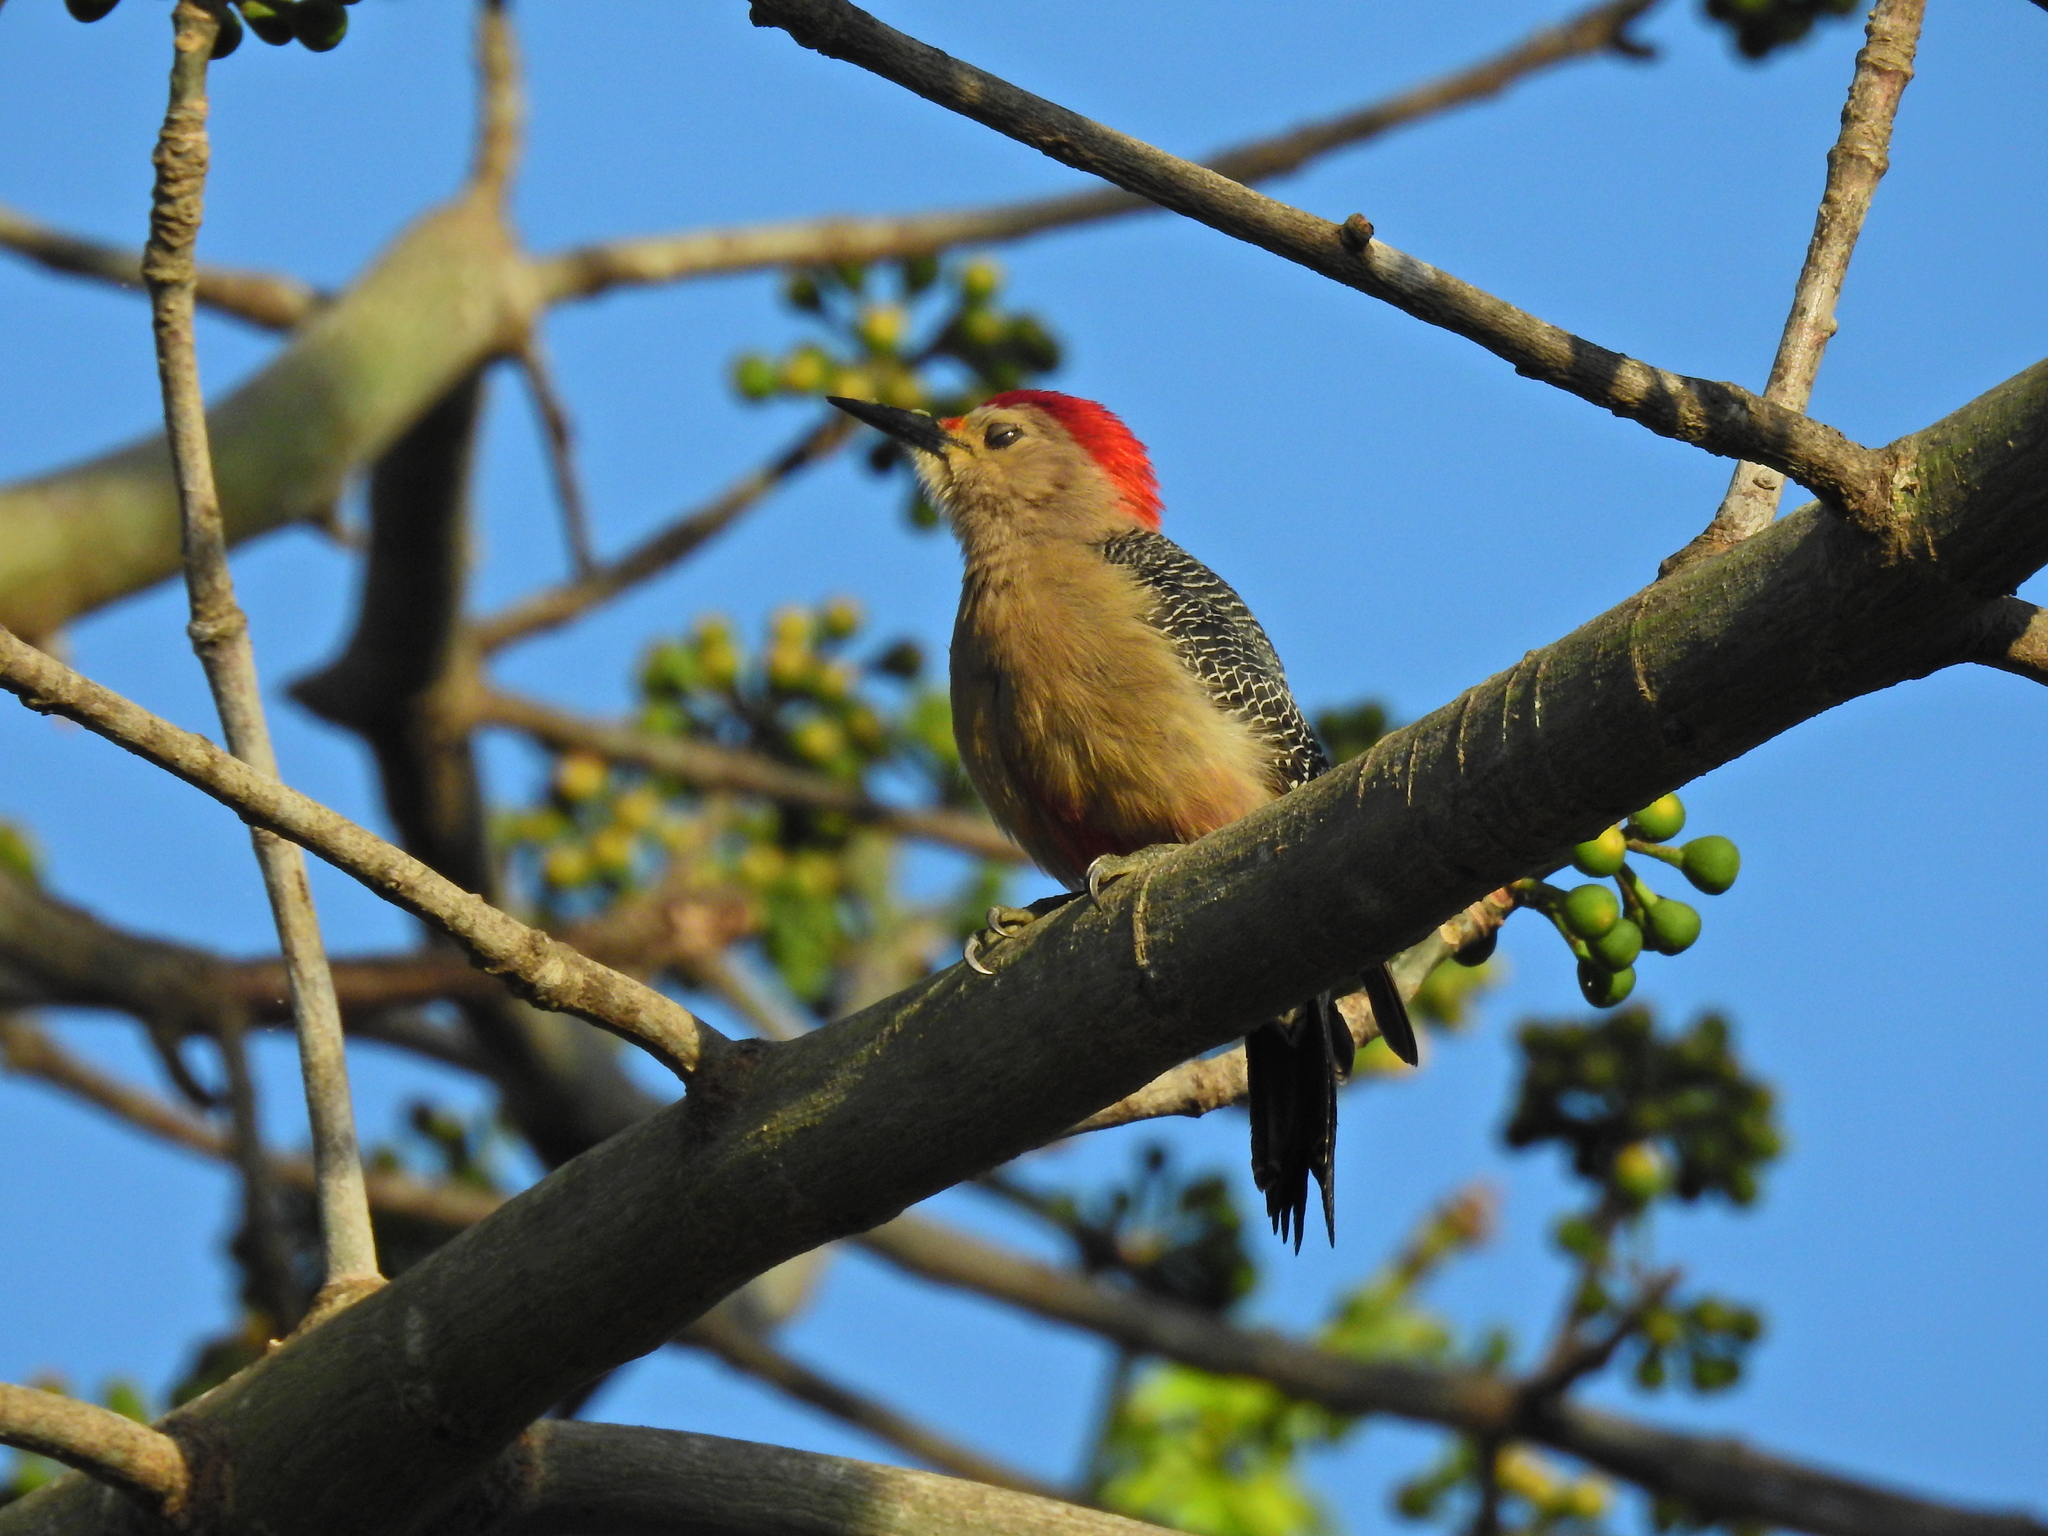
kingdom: Animalia
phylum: Chordata
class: Aves
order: Piciformes
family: Picidae
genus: Melanerpes
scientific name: Melanerpes santacruzi
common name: Velasquez's woodpecker
